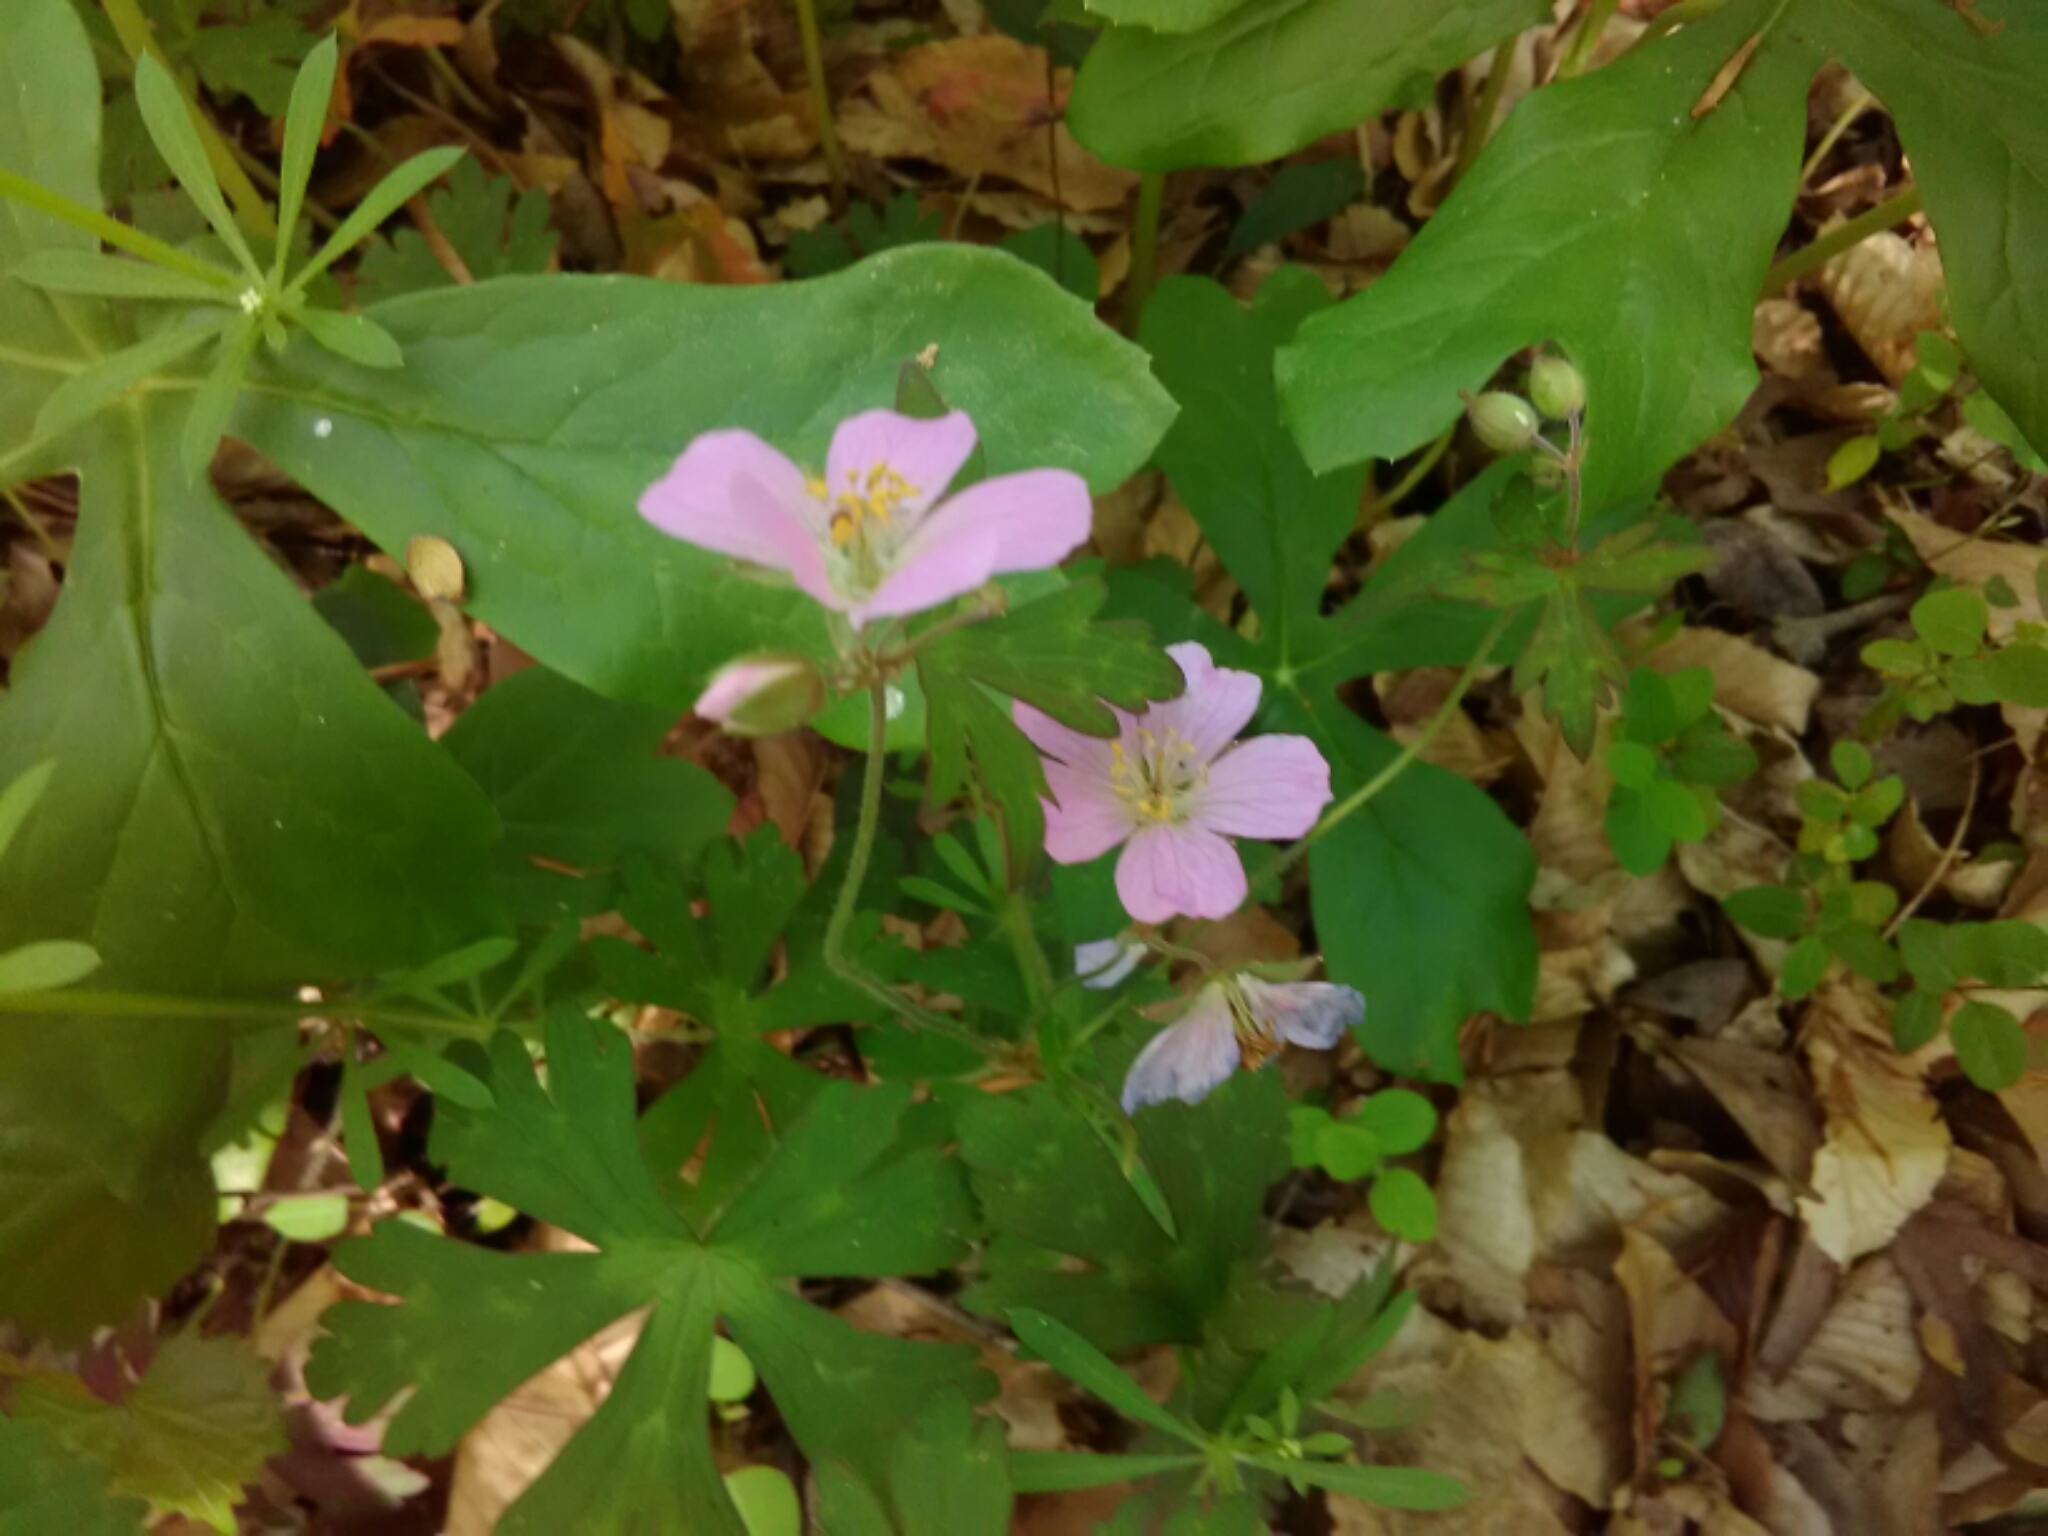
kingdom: Plantae
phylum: Tracheophyta
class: Magnoliopsida
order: Geraniales
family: Geraniaceae
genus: Geranium
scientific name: Geranium maculatum
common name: Spotted geranium
